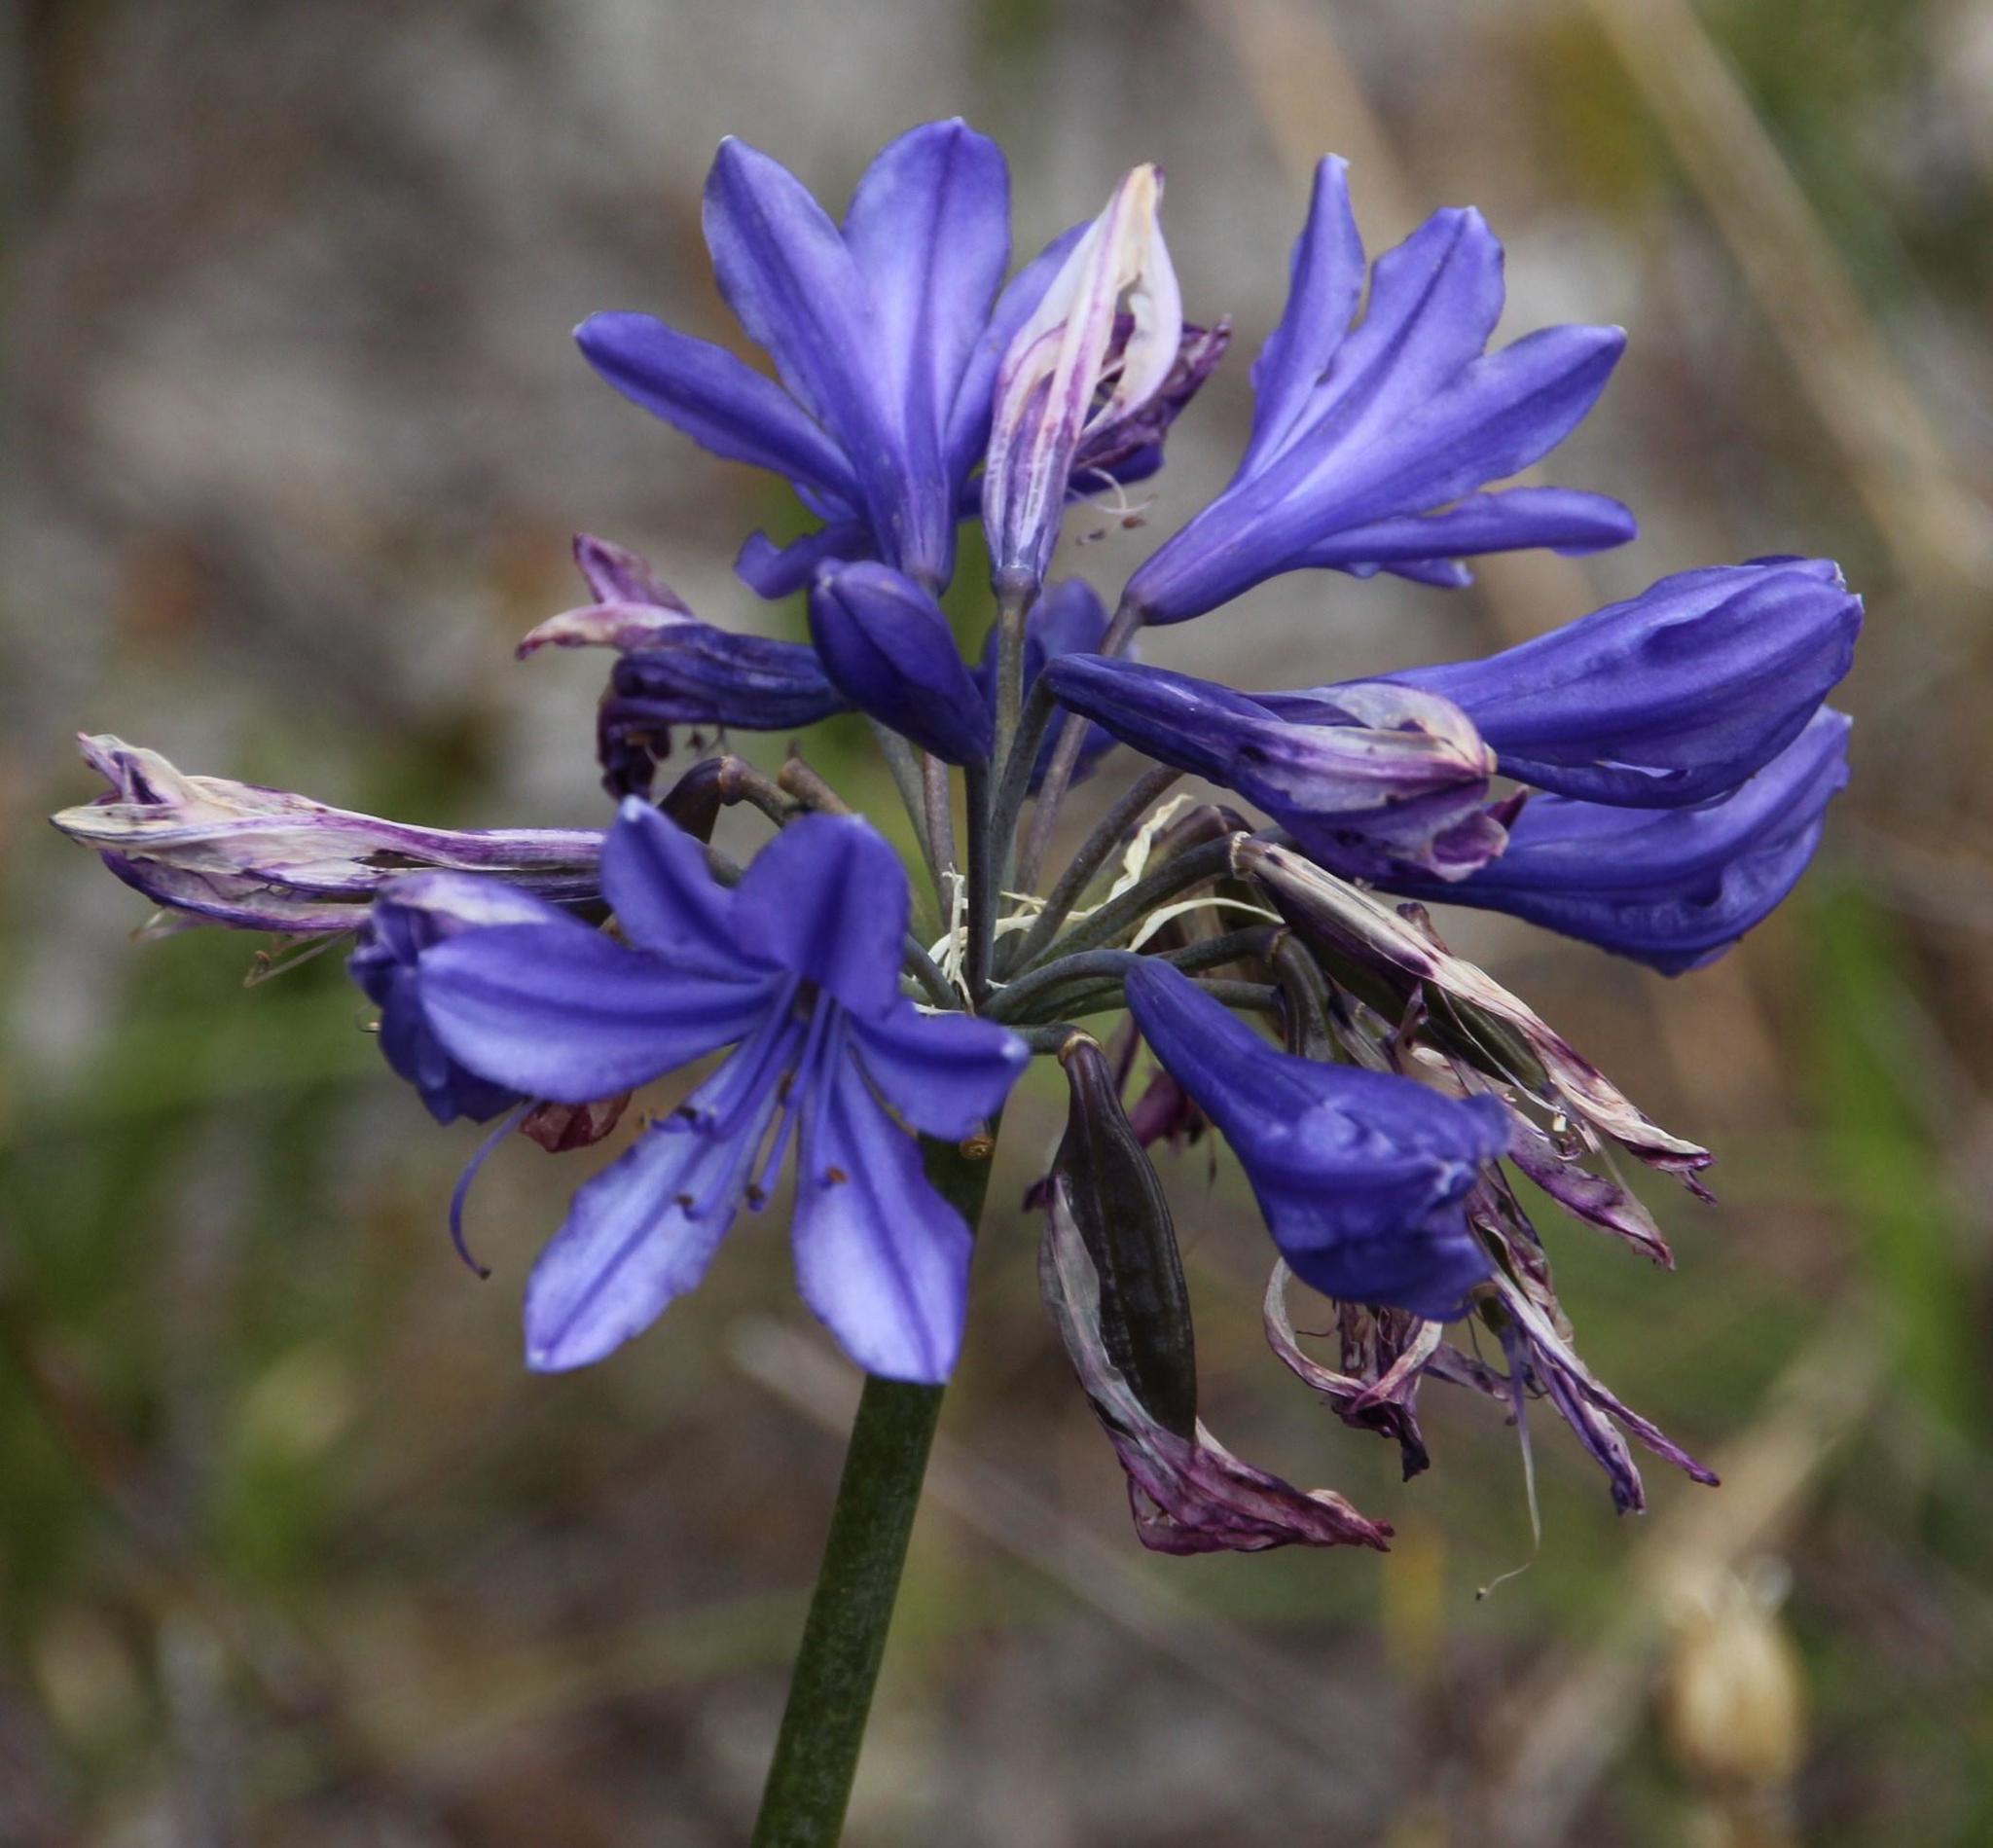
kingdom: Plantae
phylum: Tracheophyta
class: Liliopsida
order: Asparagales
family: Amaryllidaceae
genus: Agapanthus
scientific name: Agapanthus africanus
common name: Lily-of-the-nile
